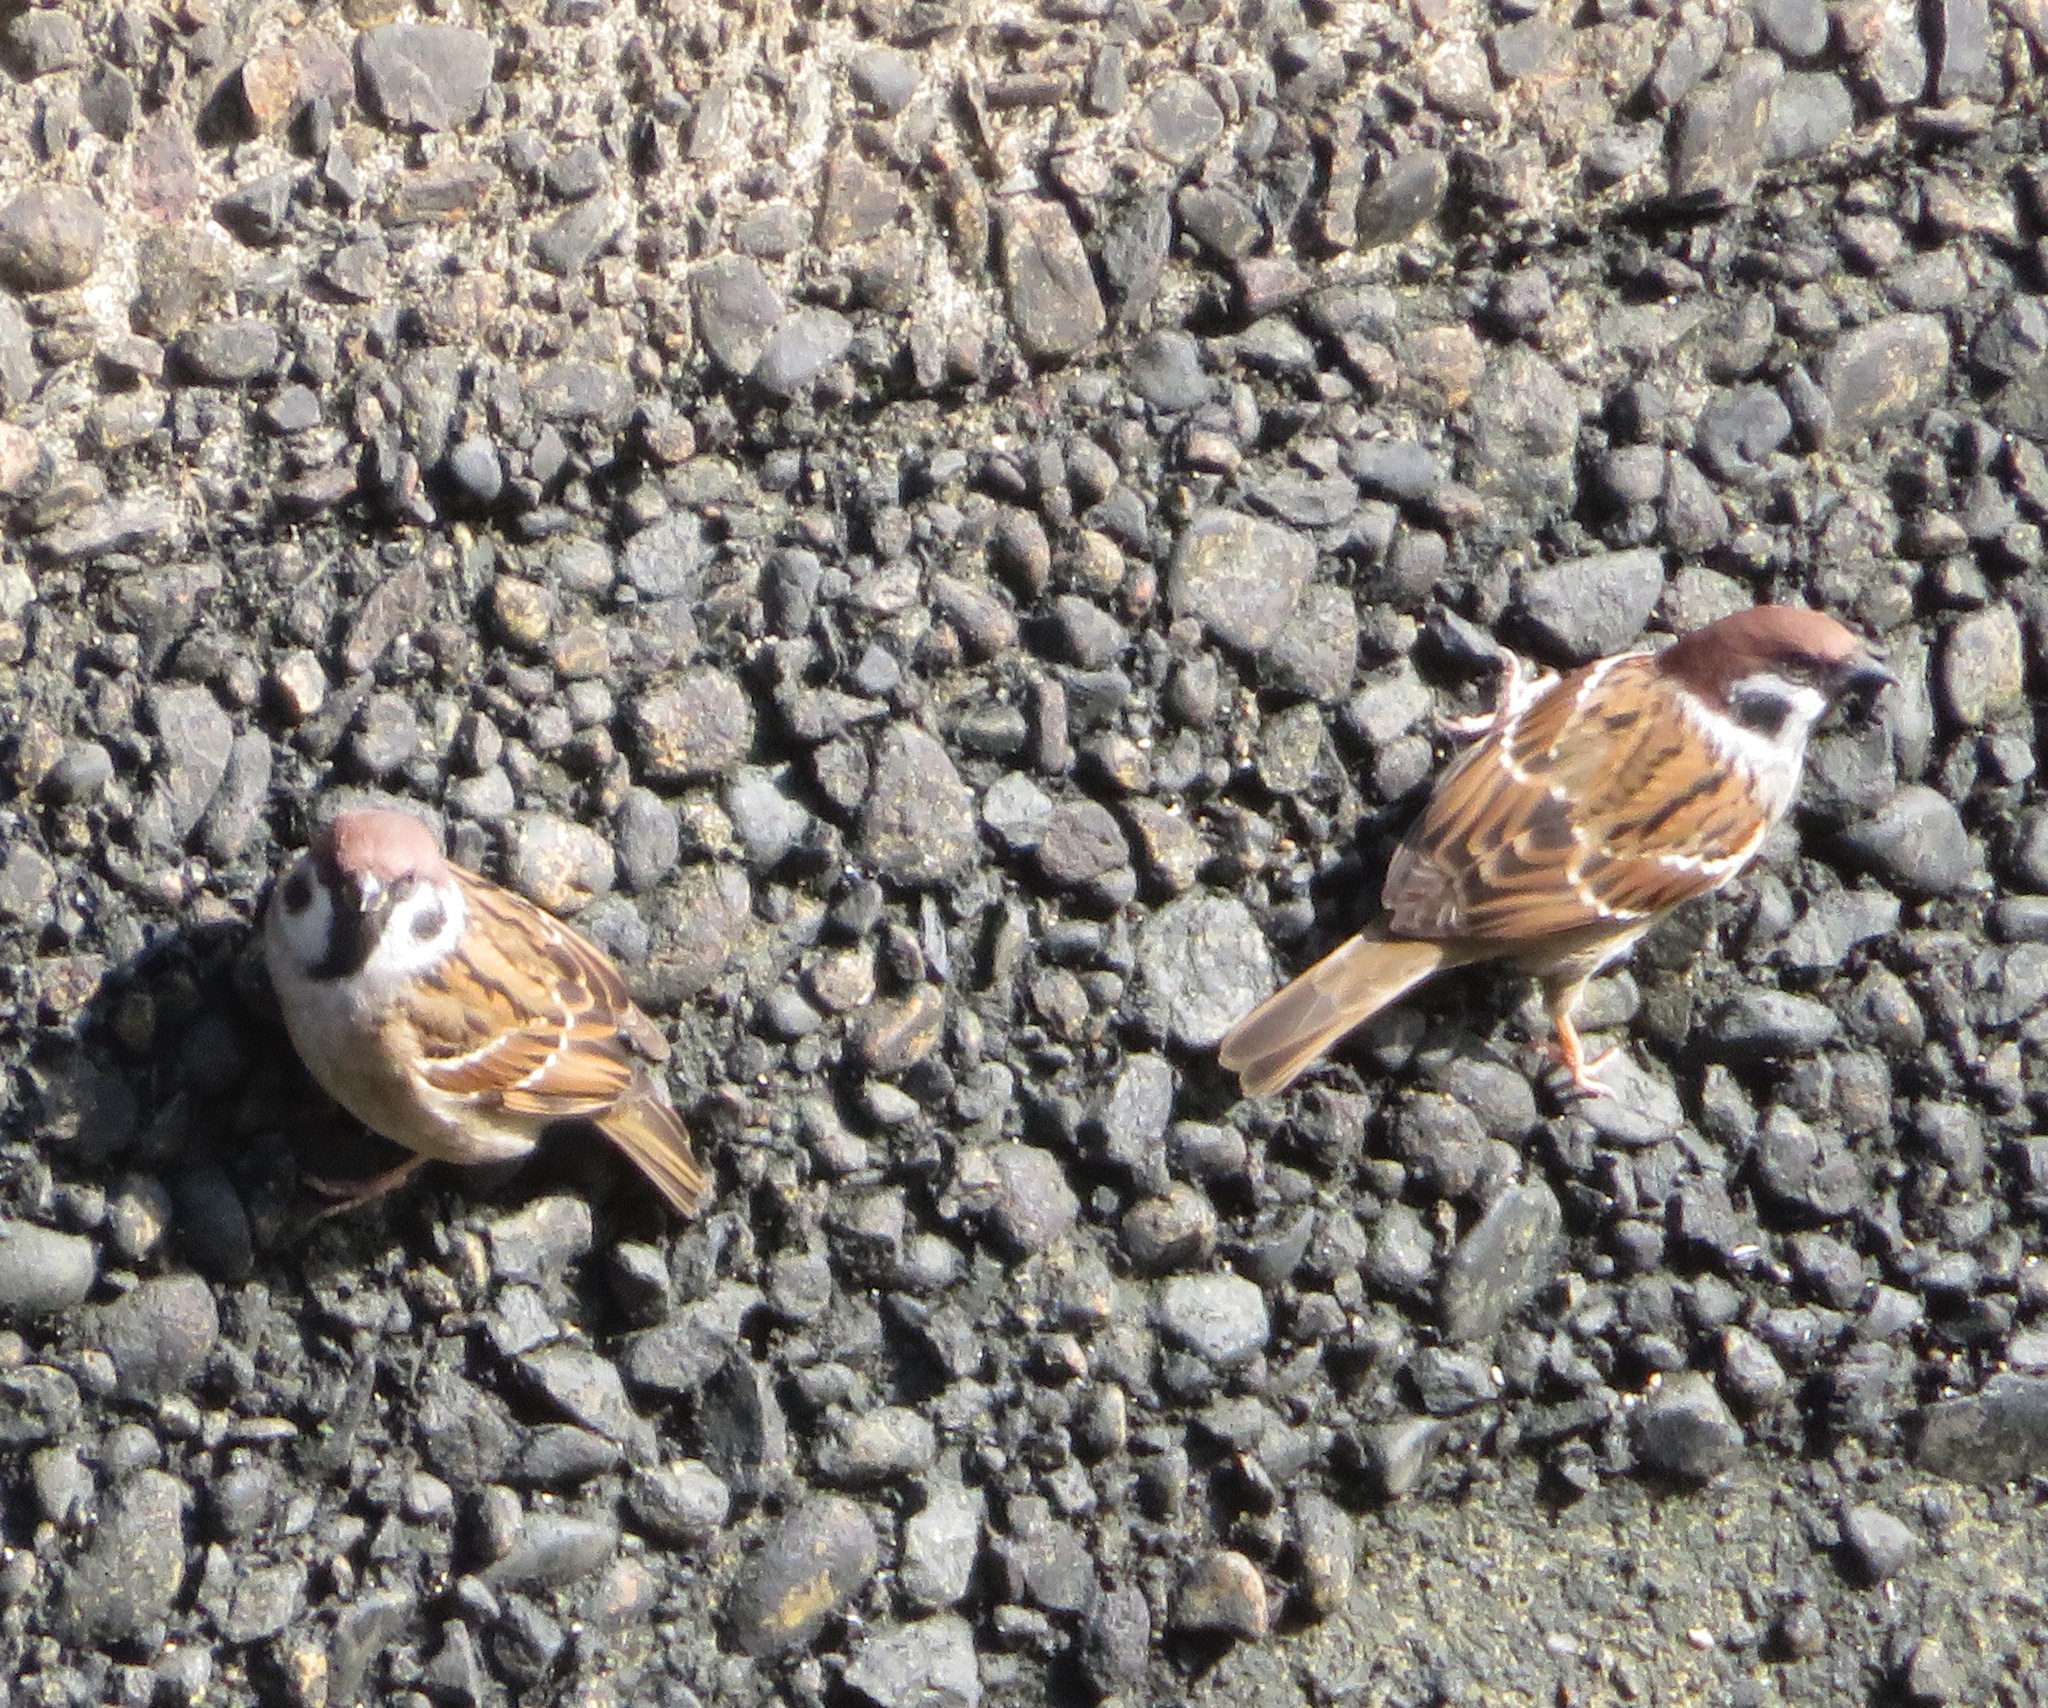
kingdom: Animalia
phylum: Chordata
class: Aves
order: Passeriformes
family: Passeridae
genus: Passer
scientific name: Passer montanus
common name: Eurasian tree sparrow
